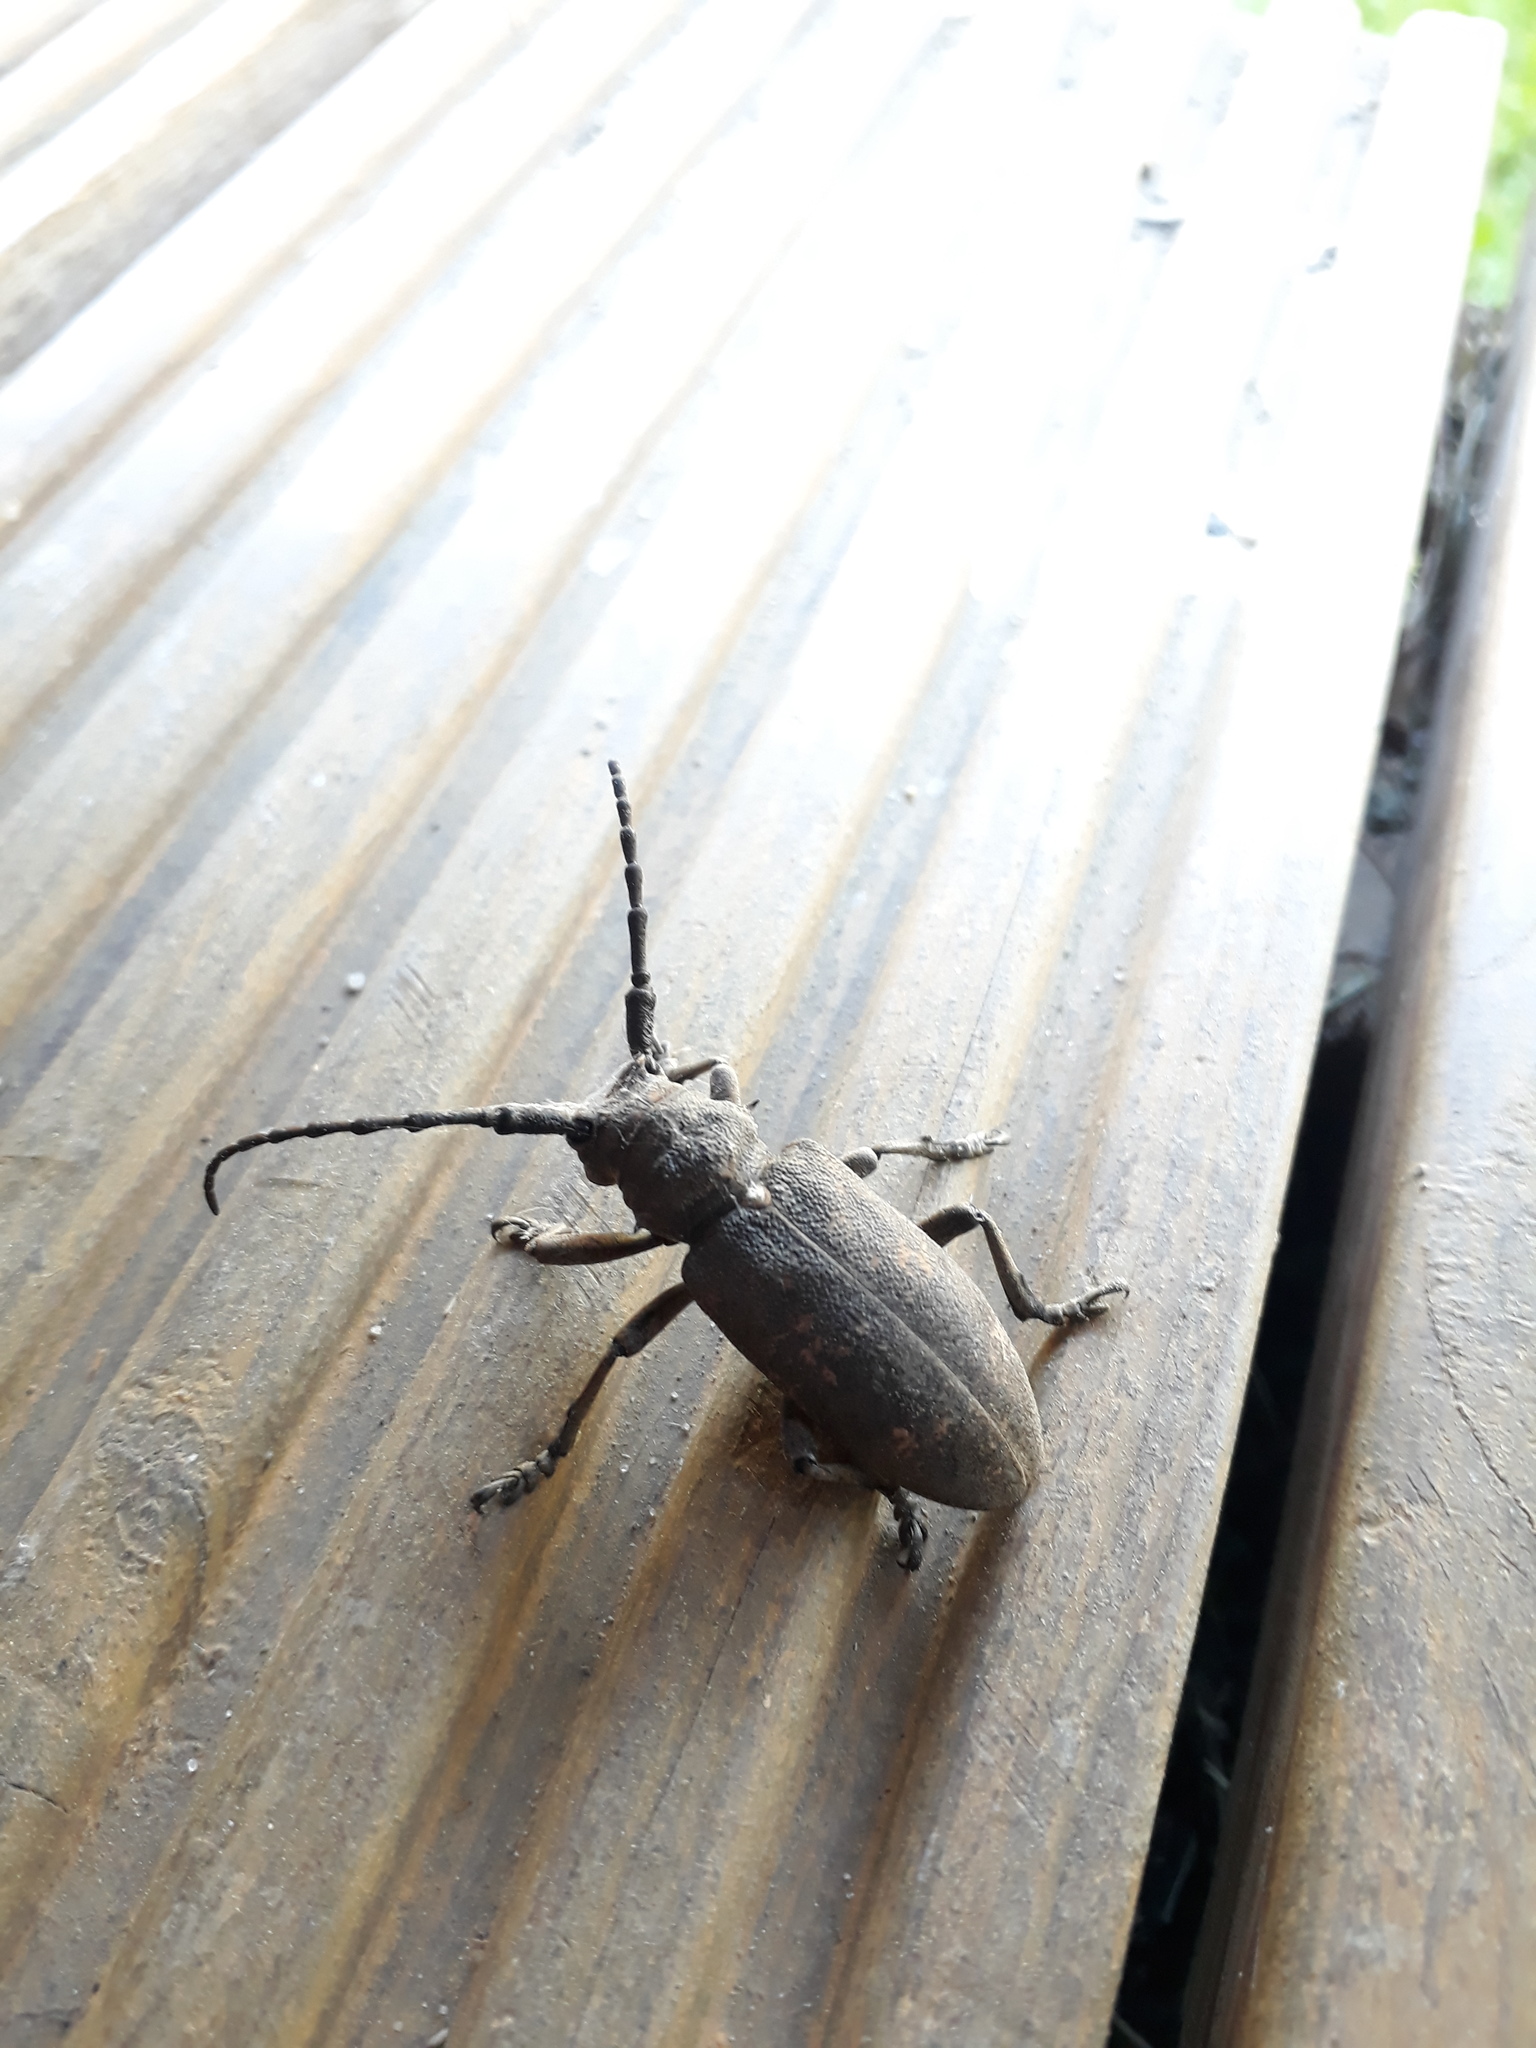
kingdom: Animalia
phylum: Arthropoda
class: Insecta
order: Coleoptera
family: Cerambycidae
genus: Lamia
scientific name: Lamia textor
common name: Weaver beetle
